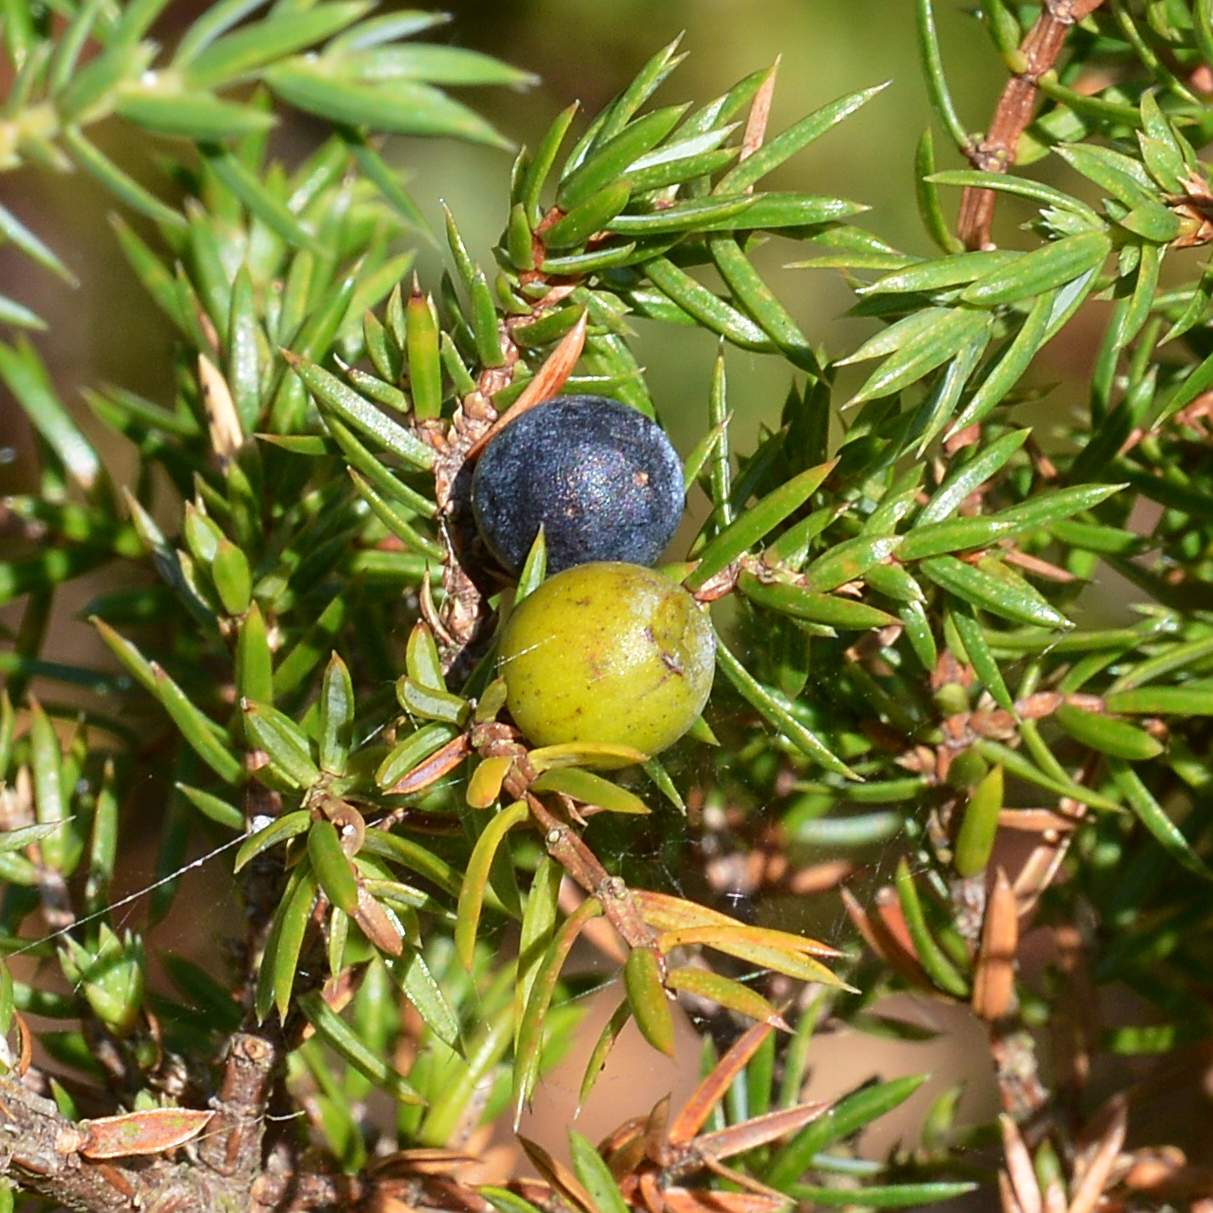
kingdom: Plantae
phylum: Tracheophyta
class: Pinopsida
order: Pinales
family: Cupressaceae
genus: Juniperus
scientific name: Juniperus communis
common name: Common juniper
